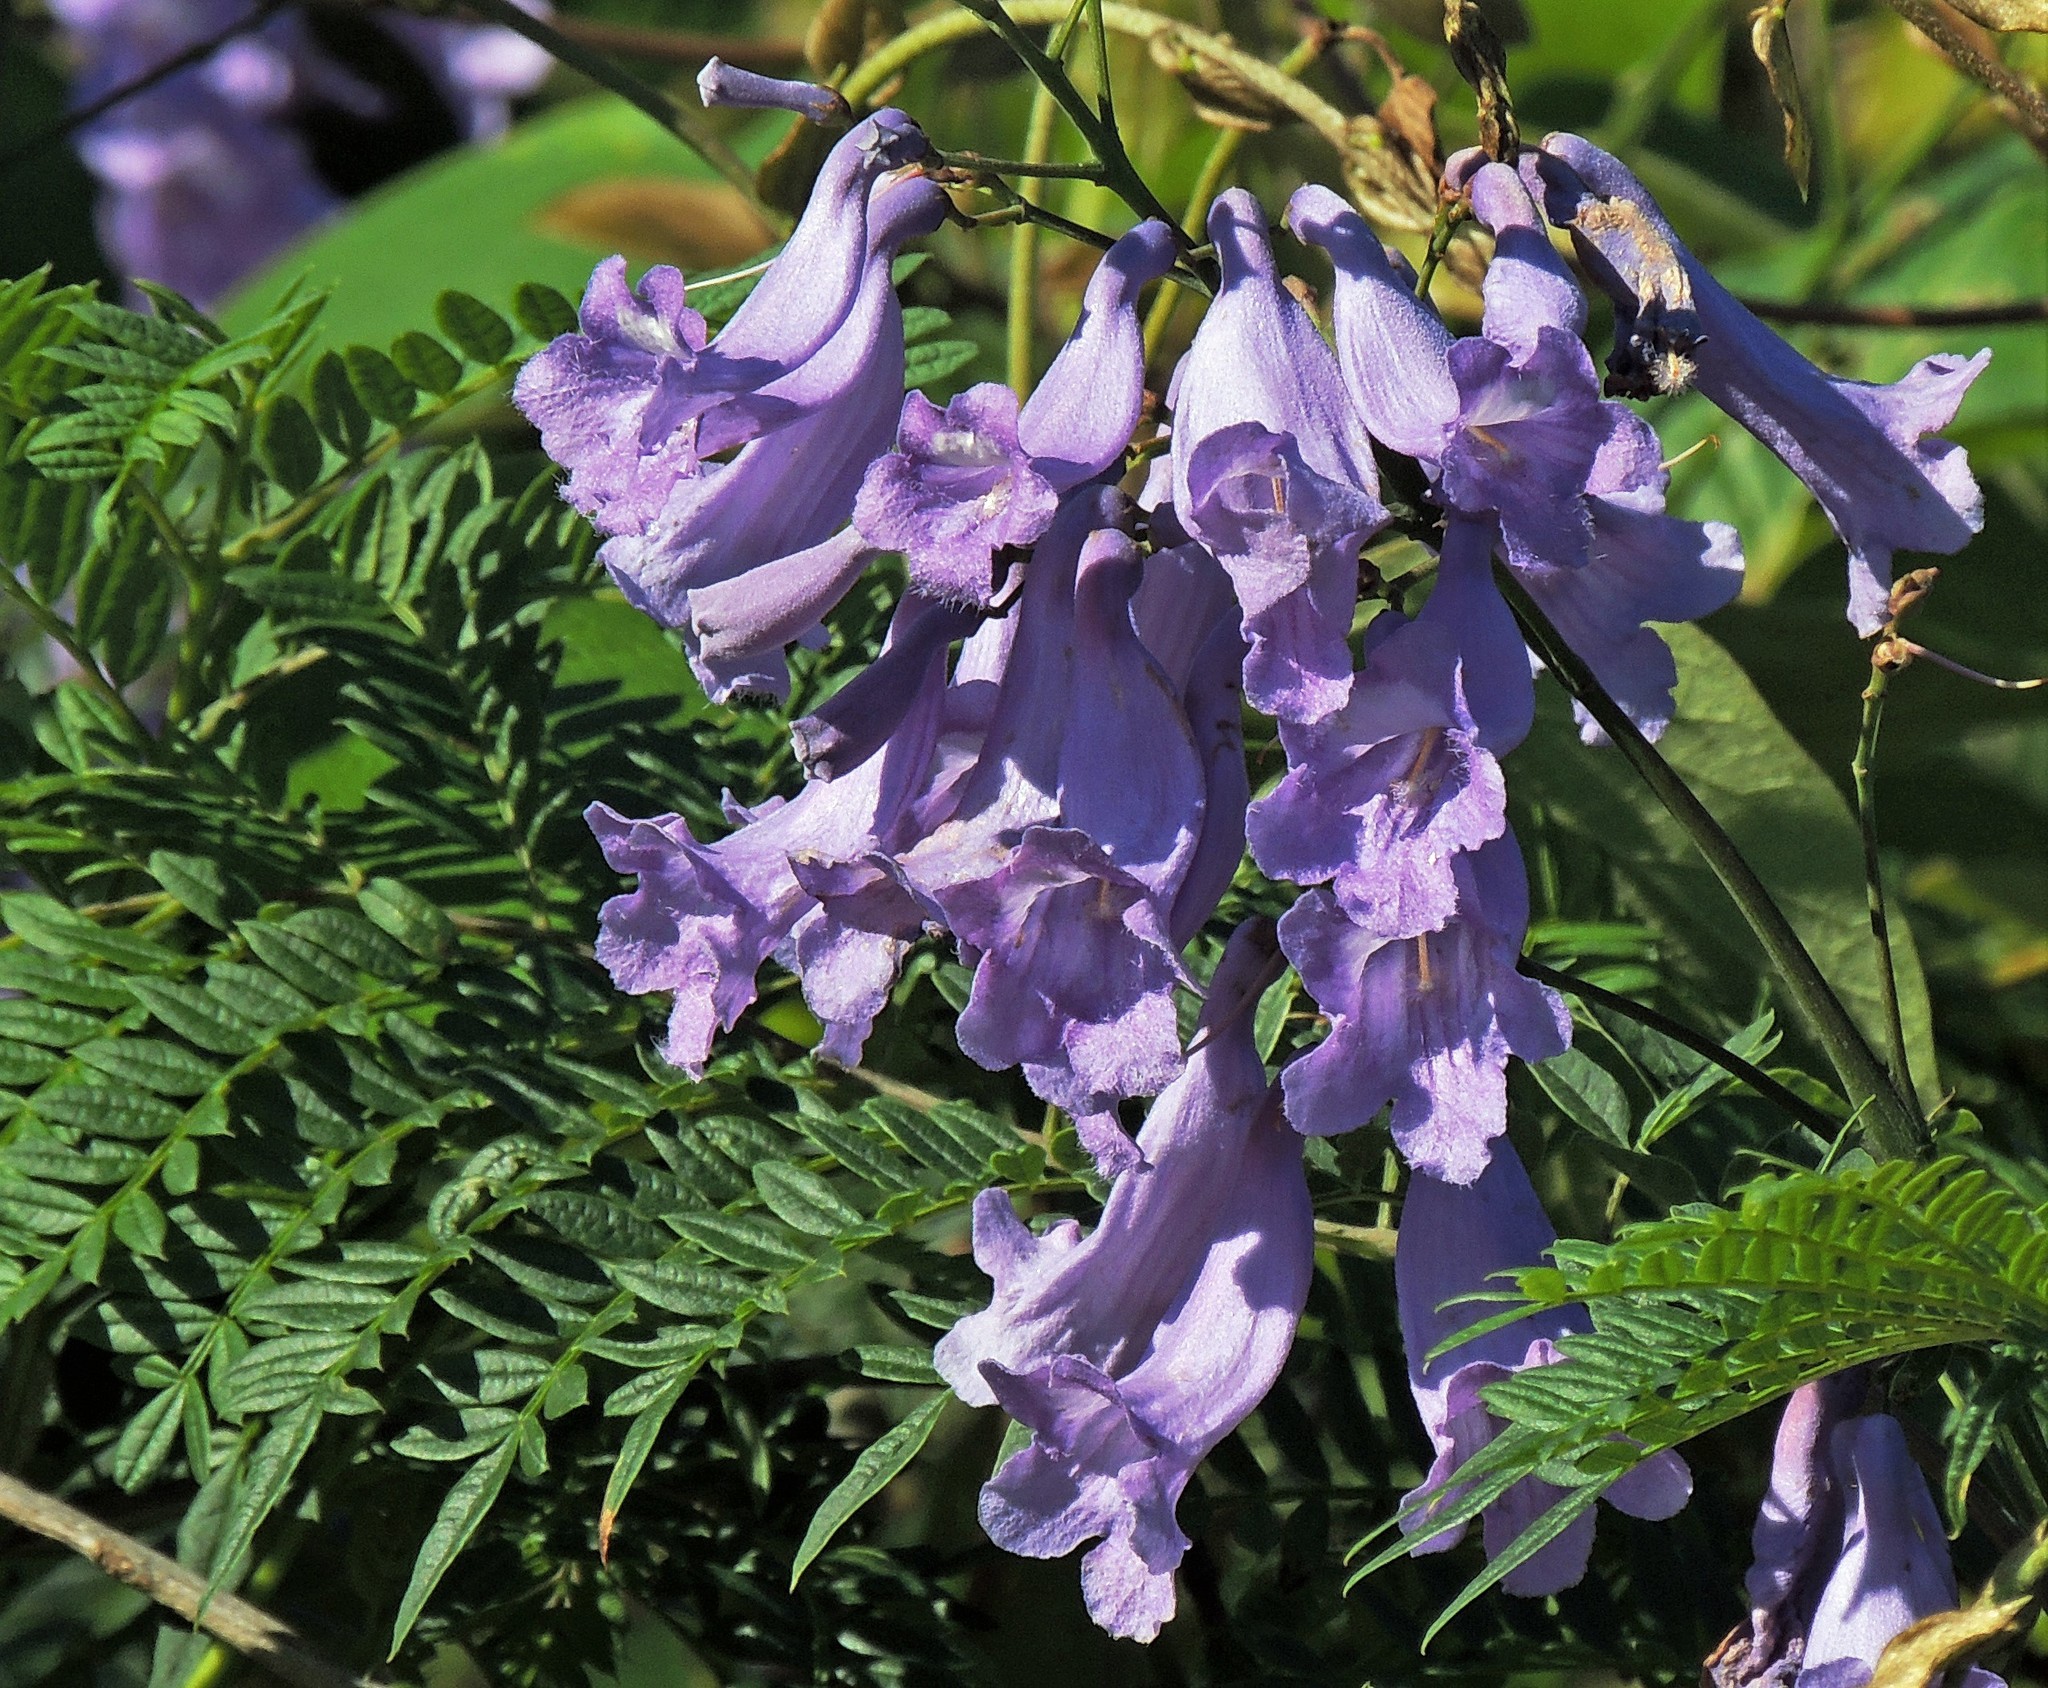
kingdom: Plantae
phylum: Tracheophyta
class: Magnoliopsida
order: Lamiales
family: Bignoniaceae
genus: Jacaranda
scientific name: Jacaranda mimosifolia
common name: Black poui
